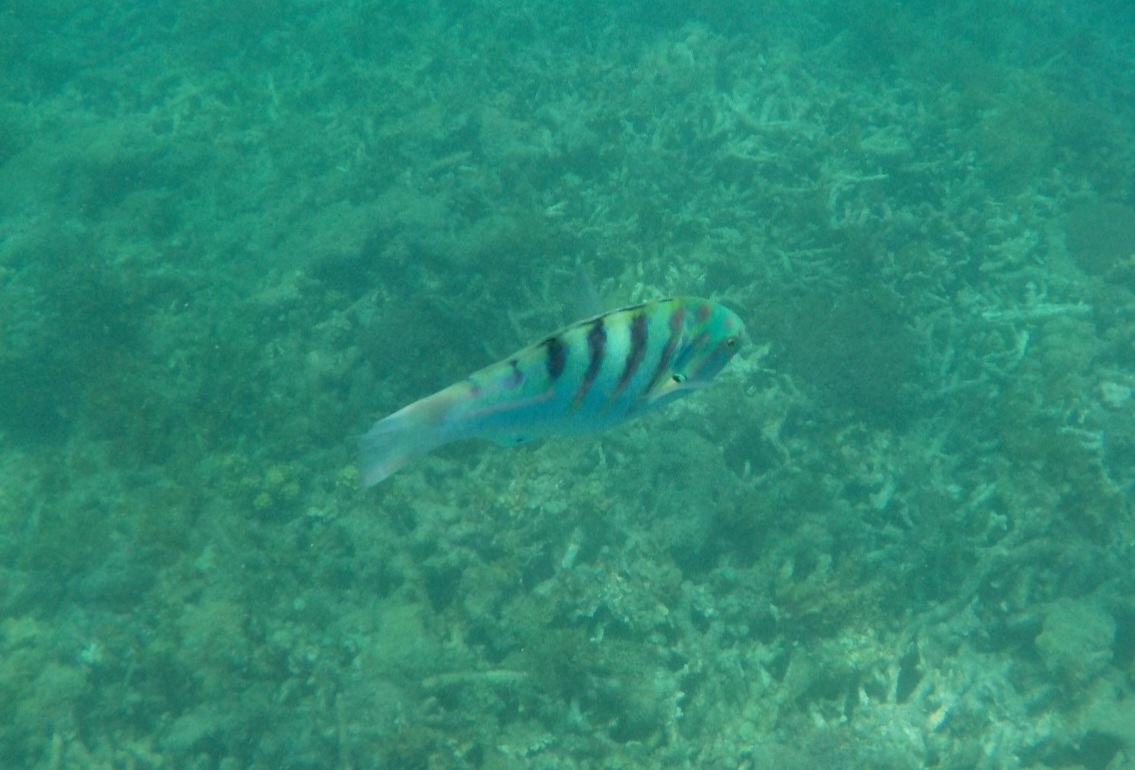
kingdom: Animalia
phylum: Chordata
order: Perciformes
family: Labridae
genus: Thalassoma
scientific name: Thalassoma hardwicke
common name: Sixbar wrasse
